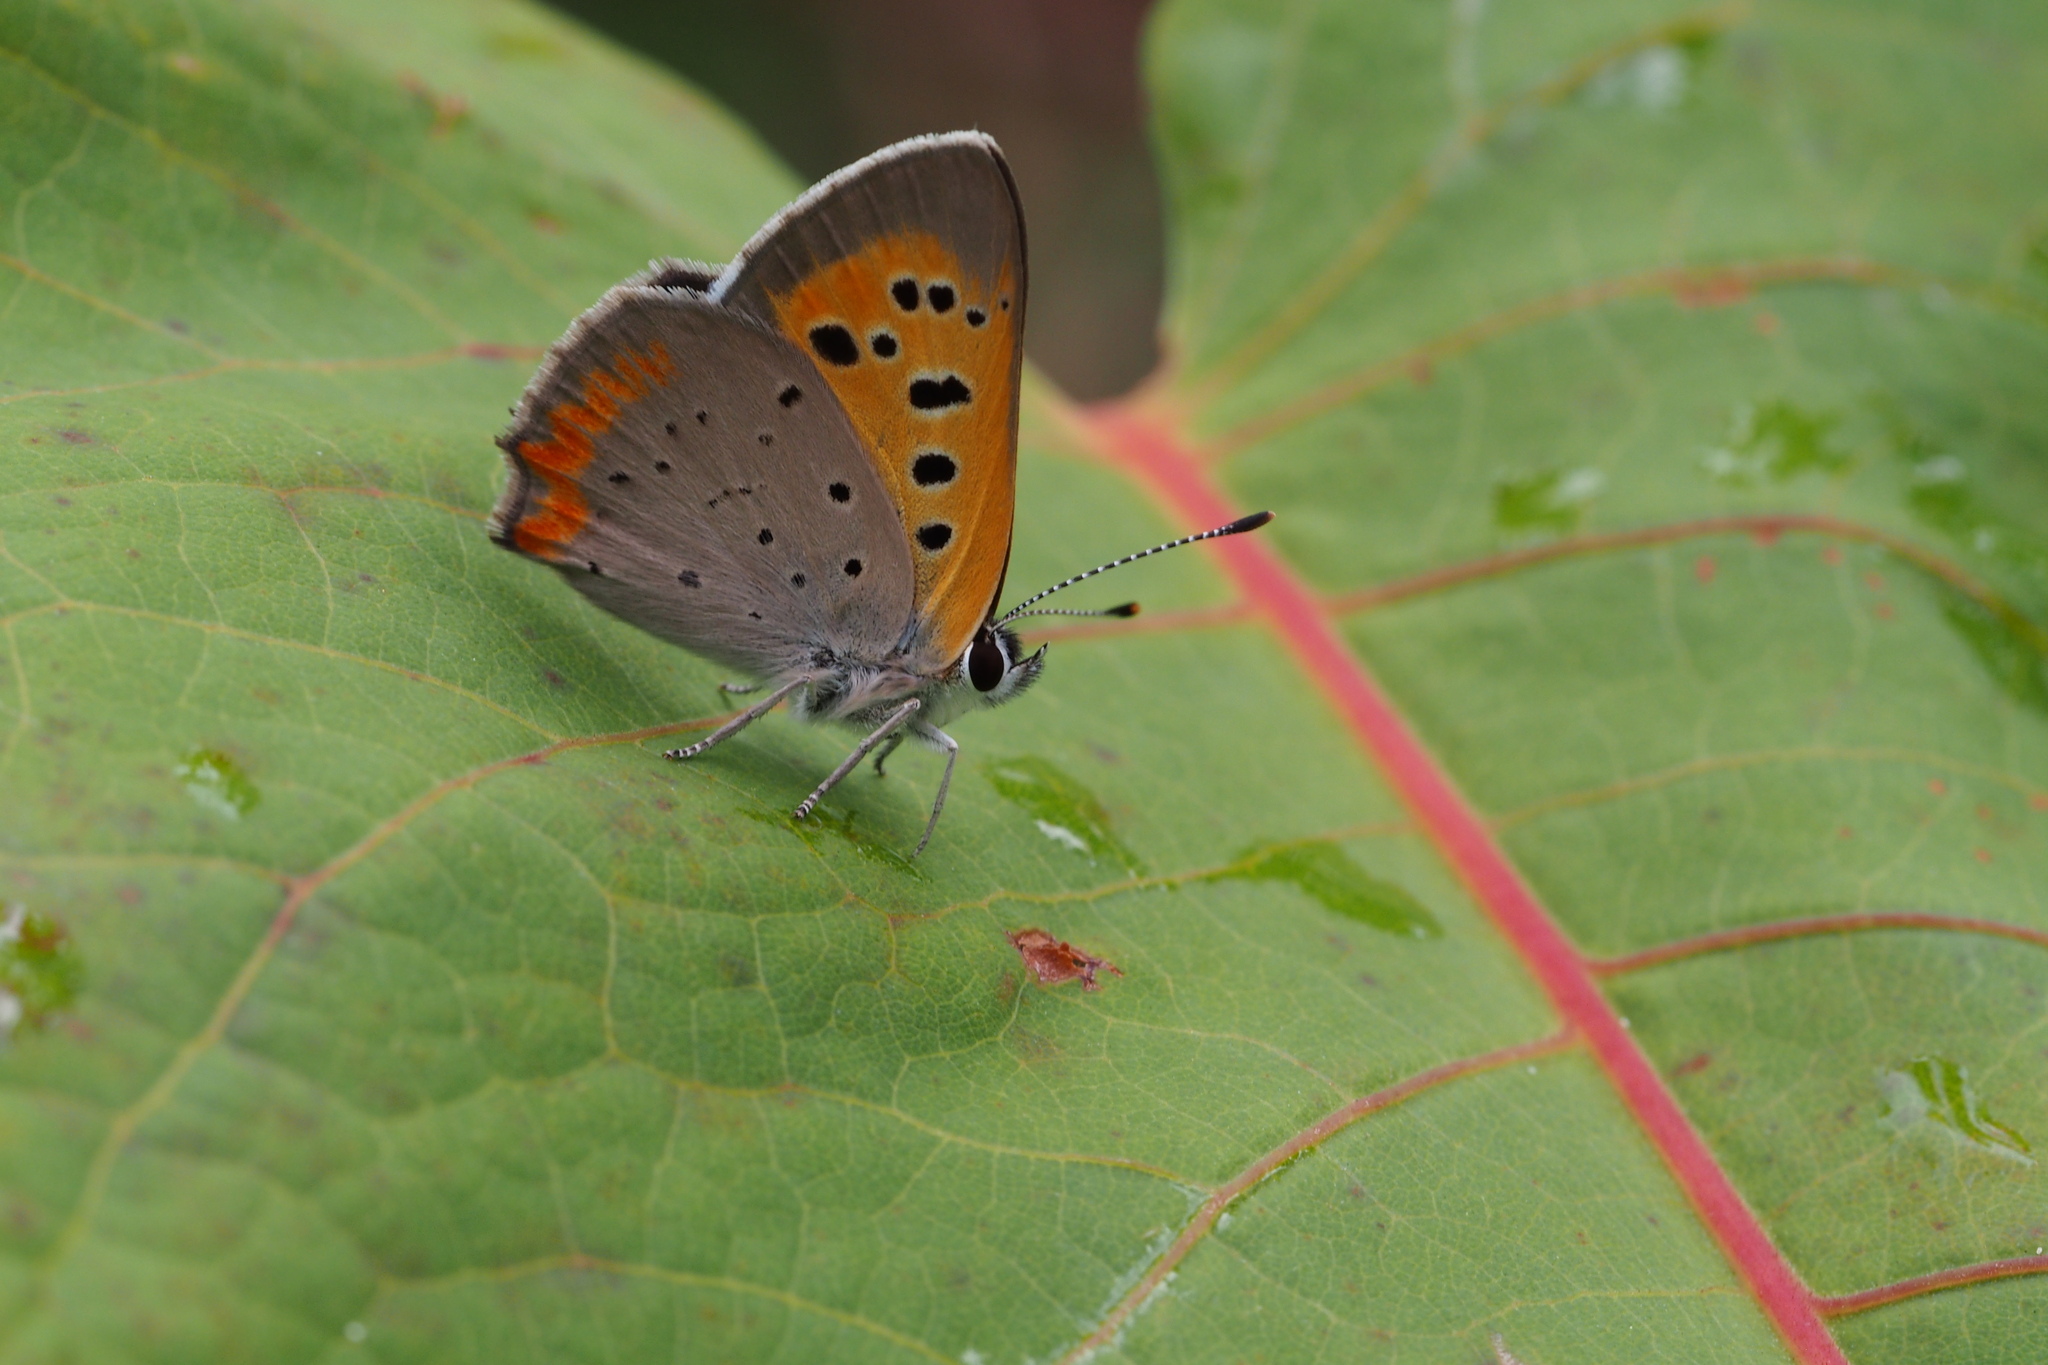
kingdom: Animalia
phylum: Arthropoda
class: Insecta
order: Lepidoptera
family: Lycaenidae
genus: Lycaena
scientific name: Lycaena phlaeas
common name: Small copper
